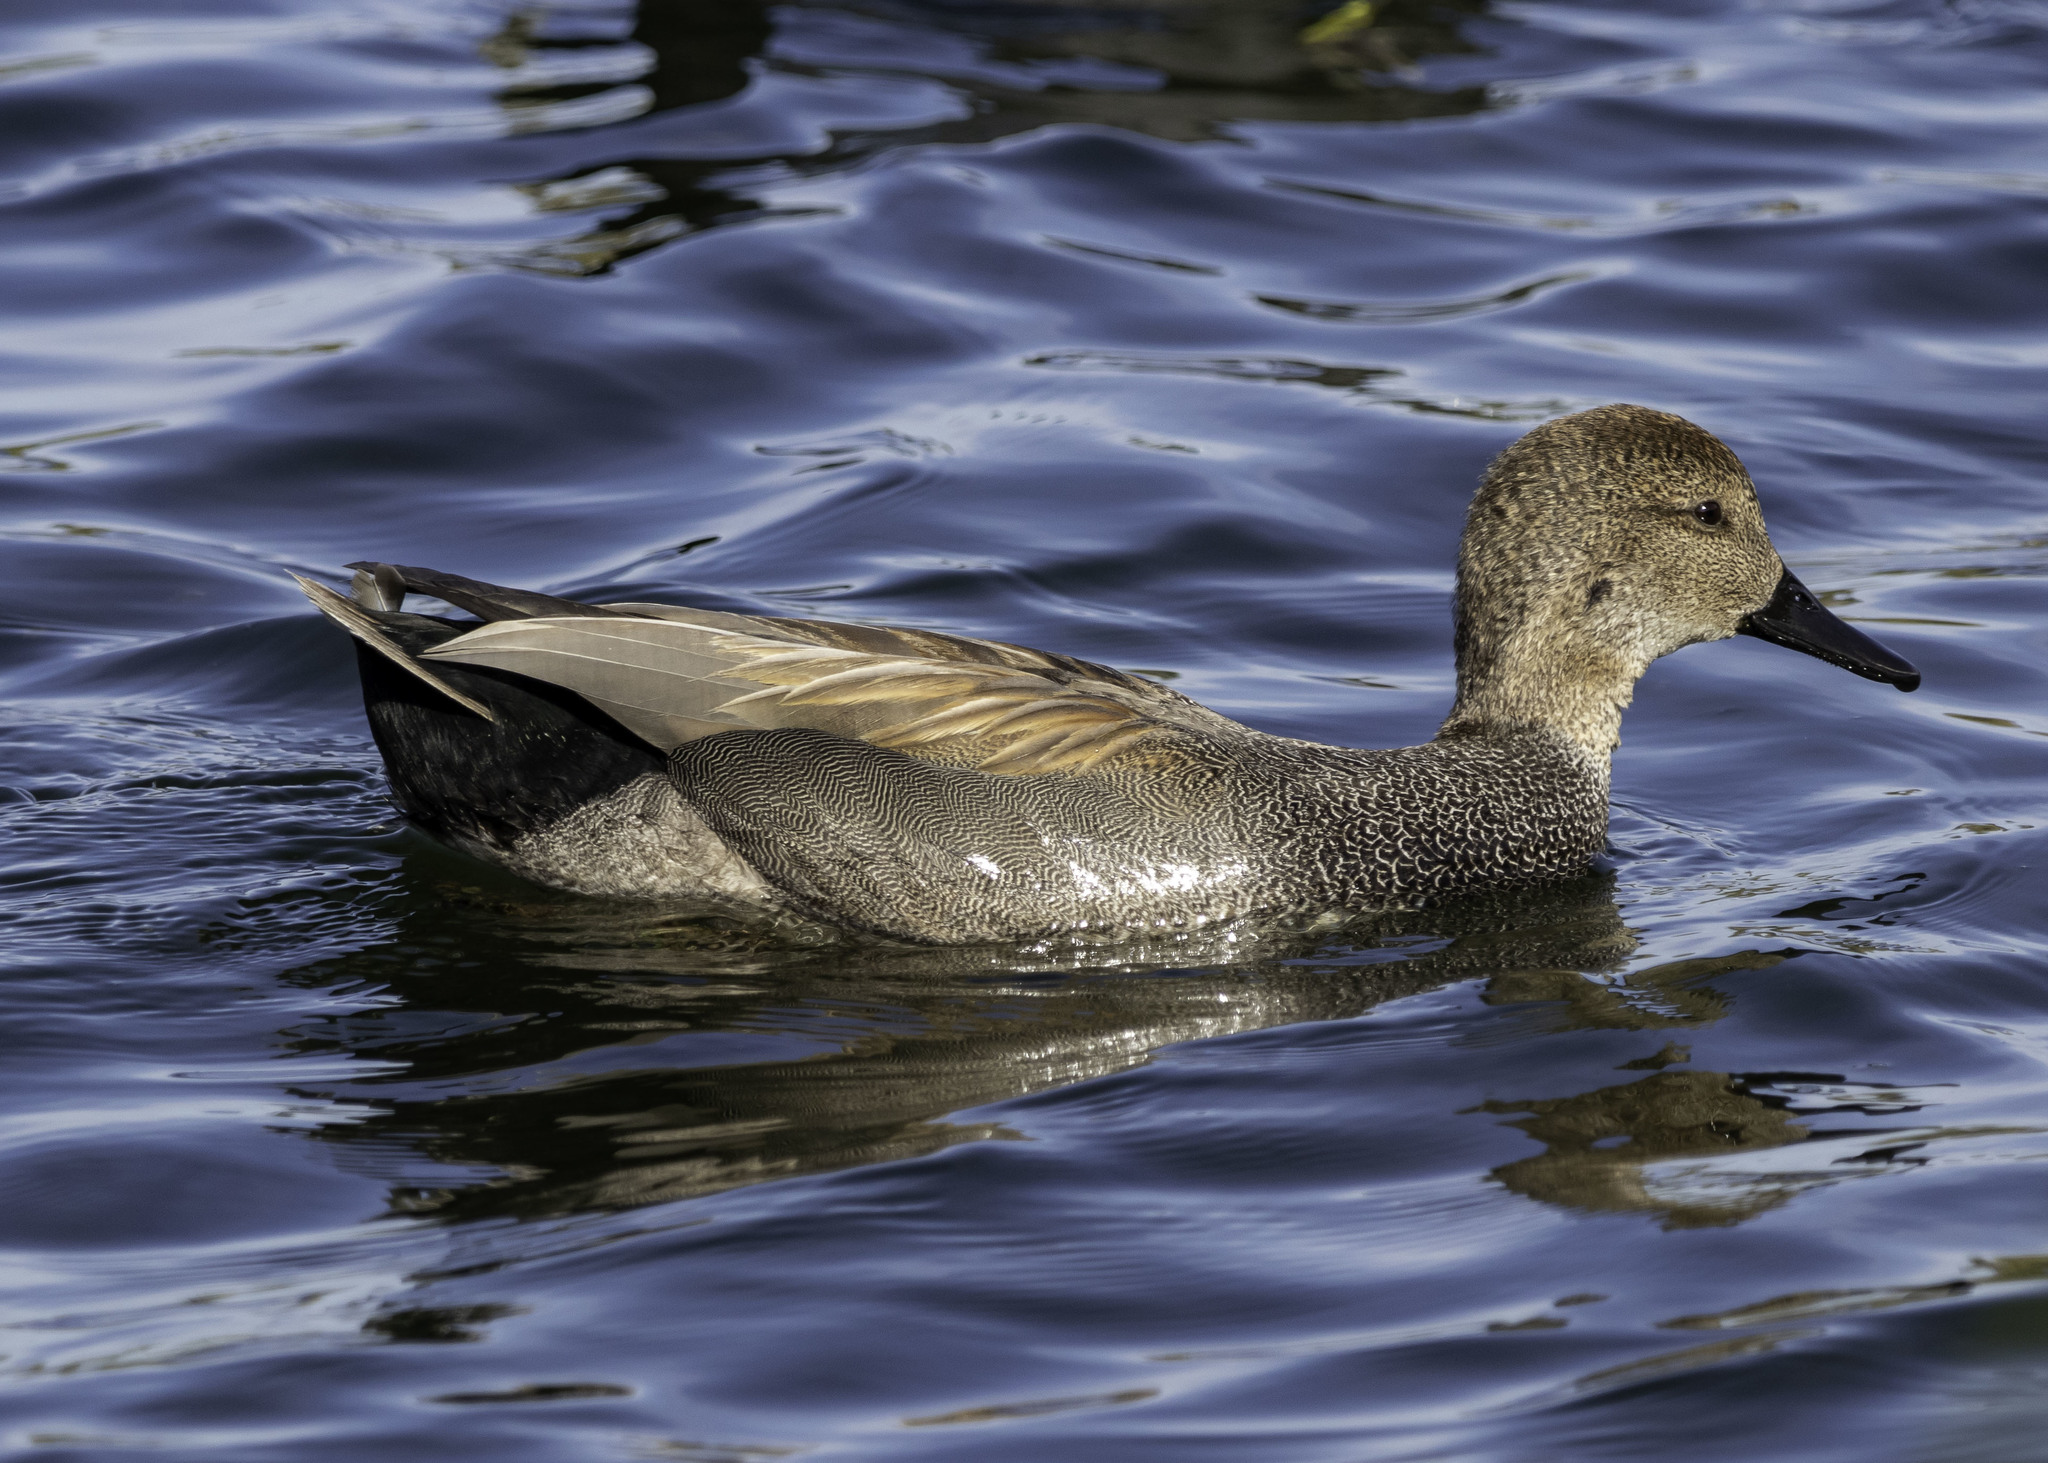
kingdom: Animalia
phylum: Chordata
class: Aves
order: Anseriformes
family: Anatidae
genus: Mareca
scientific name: Mareca strepera
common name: Gadwall
